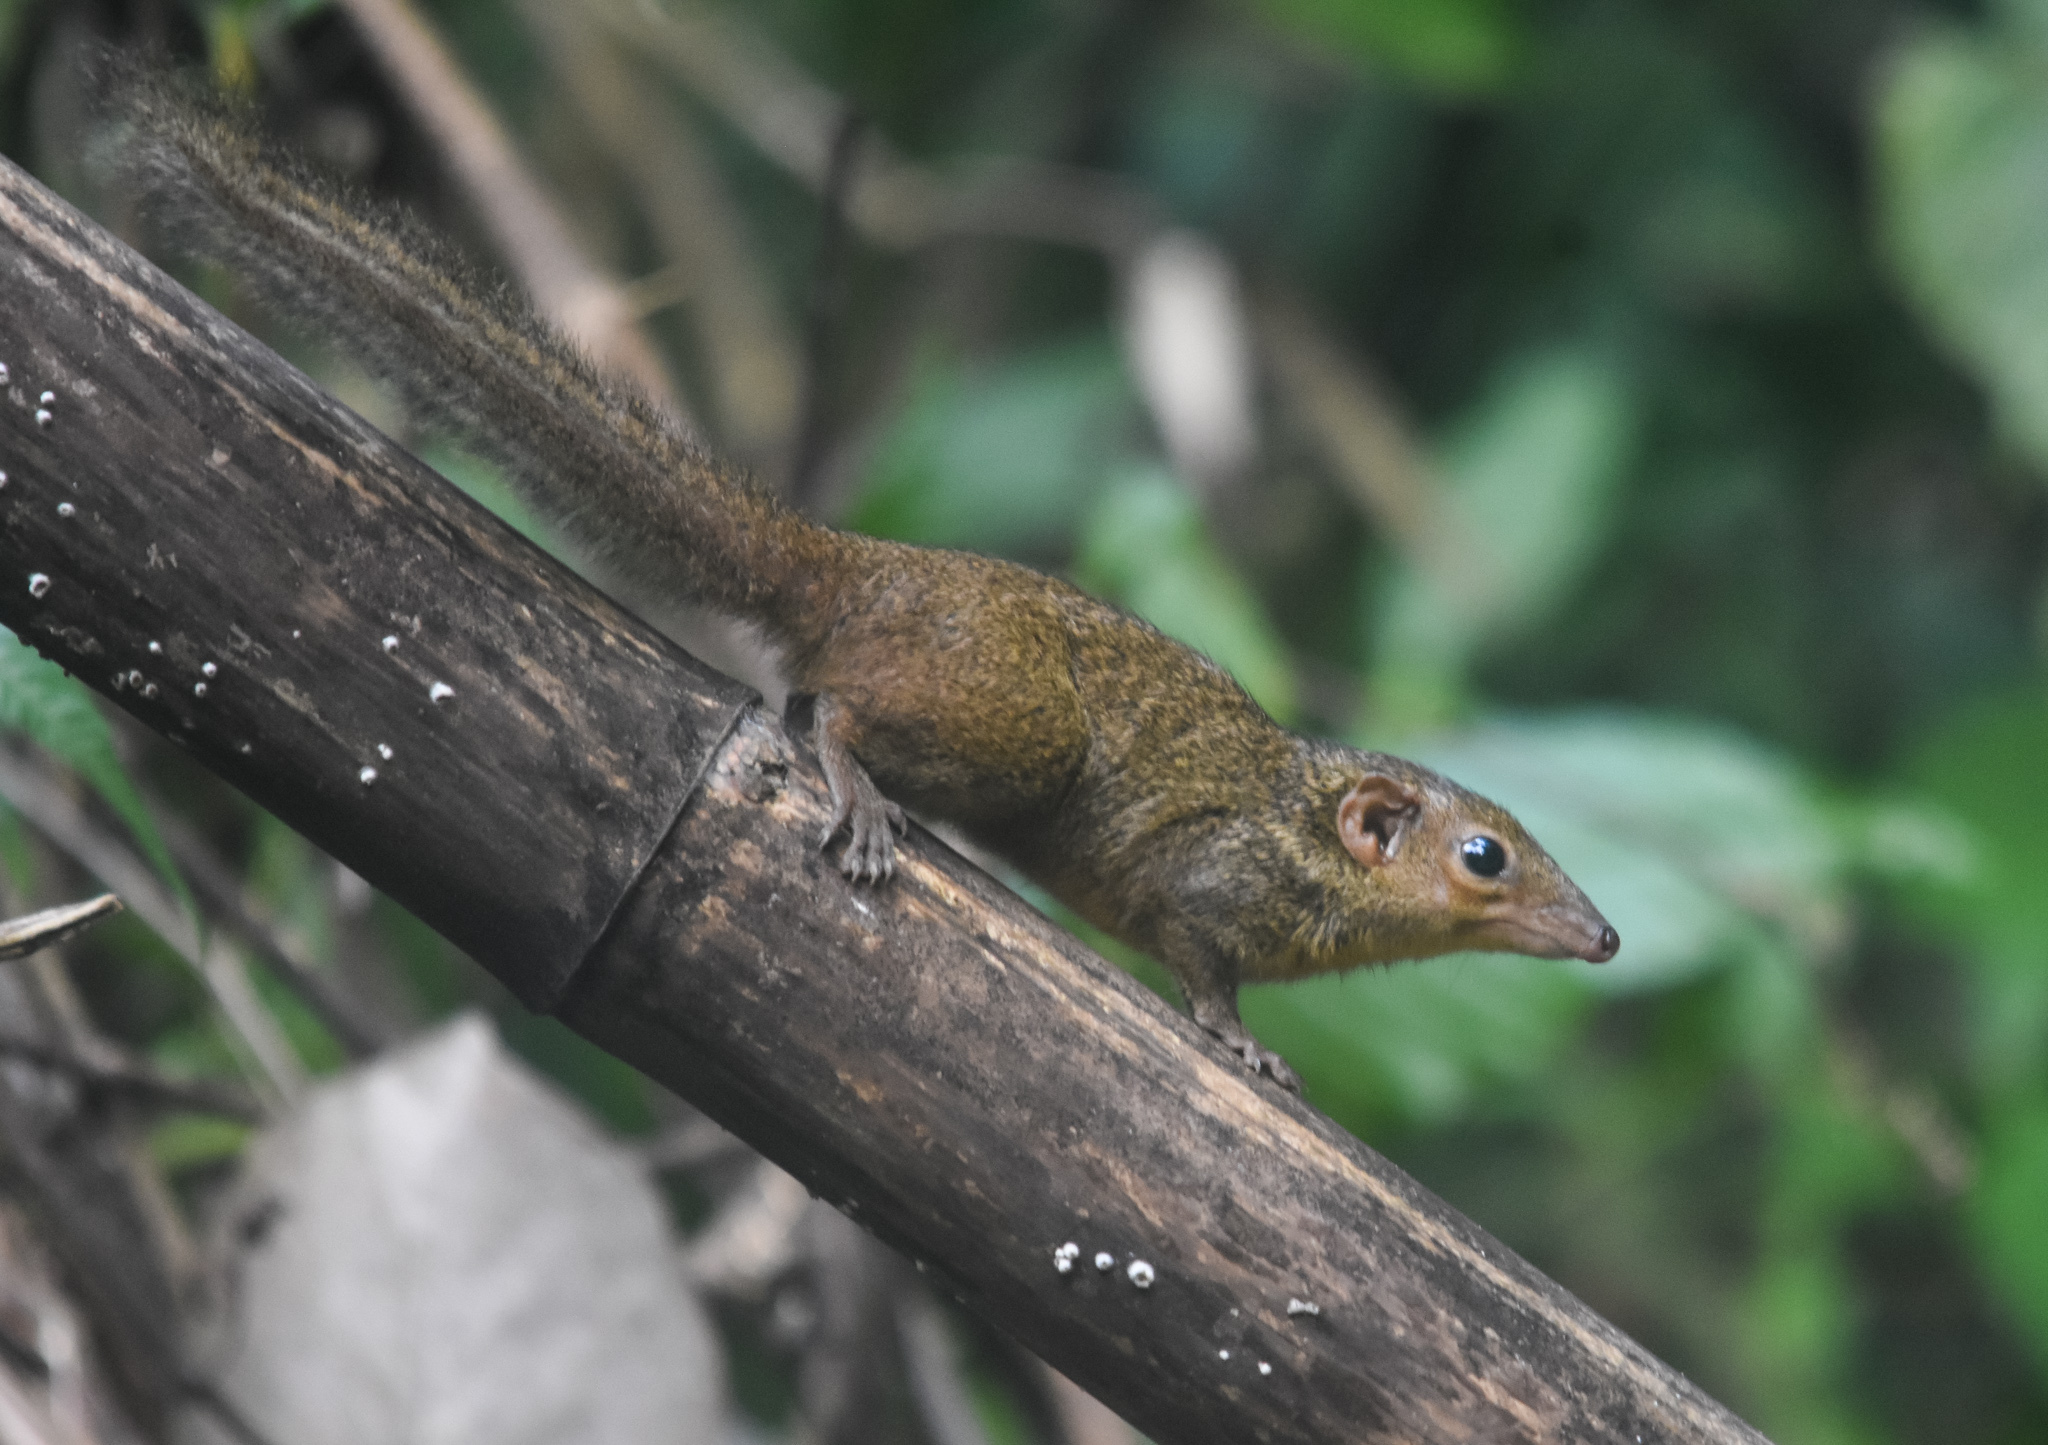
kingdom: Animalia
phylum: Chordata
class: Mammalia
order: Scandentia
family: Tupaiidae
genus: Tupaia
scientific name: Tupaia belangeri
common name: Northern treeshrew
